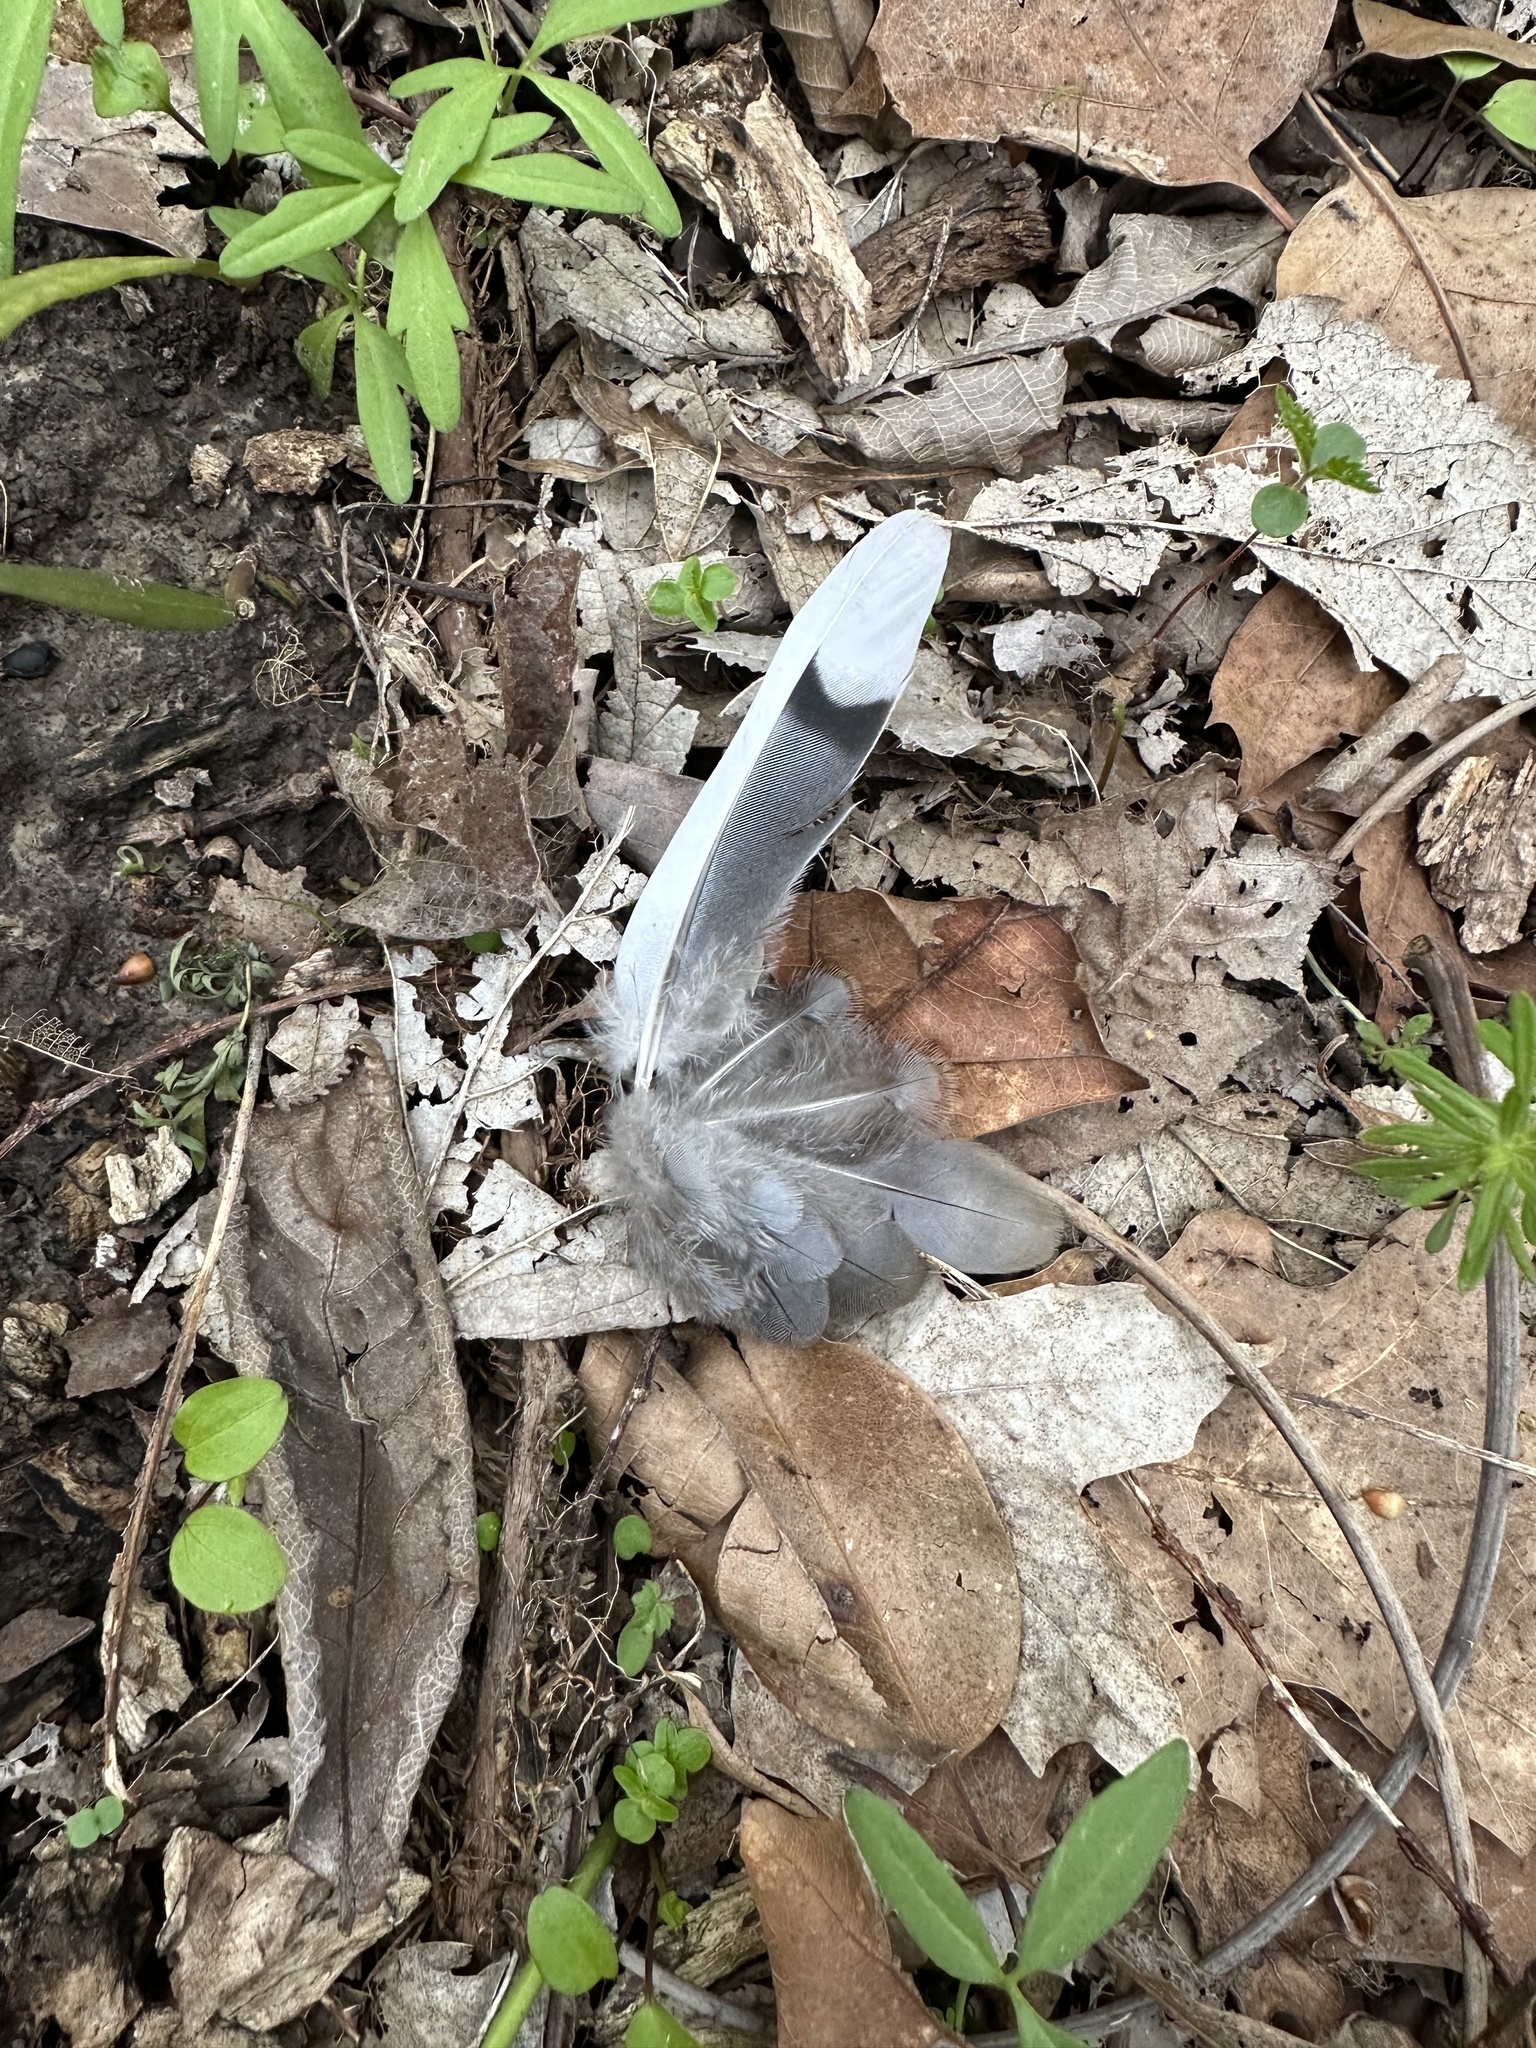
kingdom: Animalia
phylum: Chordata
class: Aves
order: Columbiformes
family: Columbidae
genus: Zenaida
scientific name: Zenaida macroura
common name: Mourning dove
